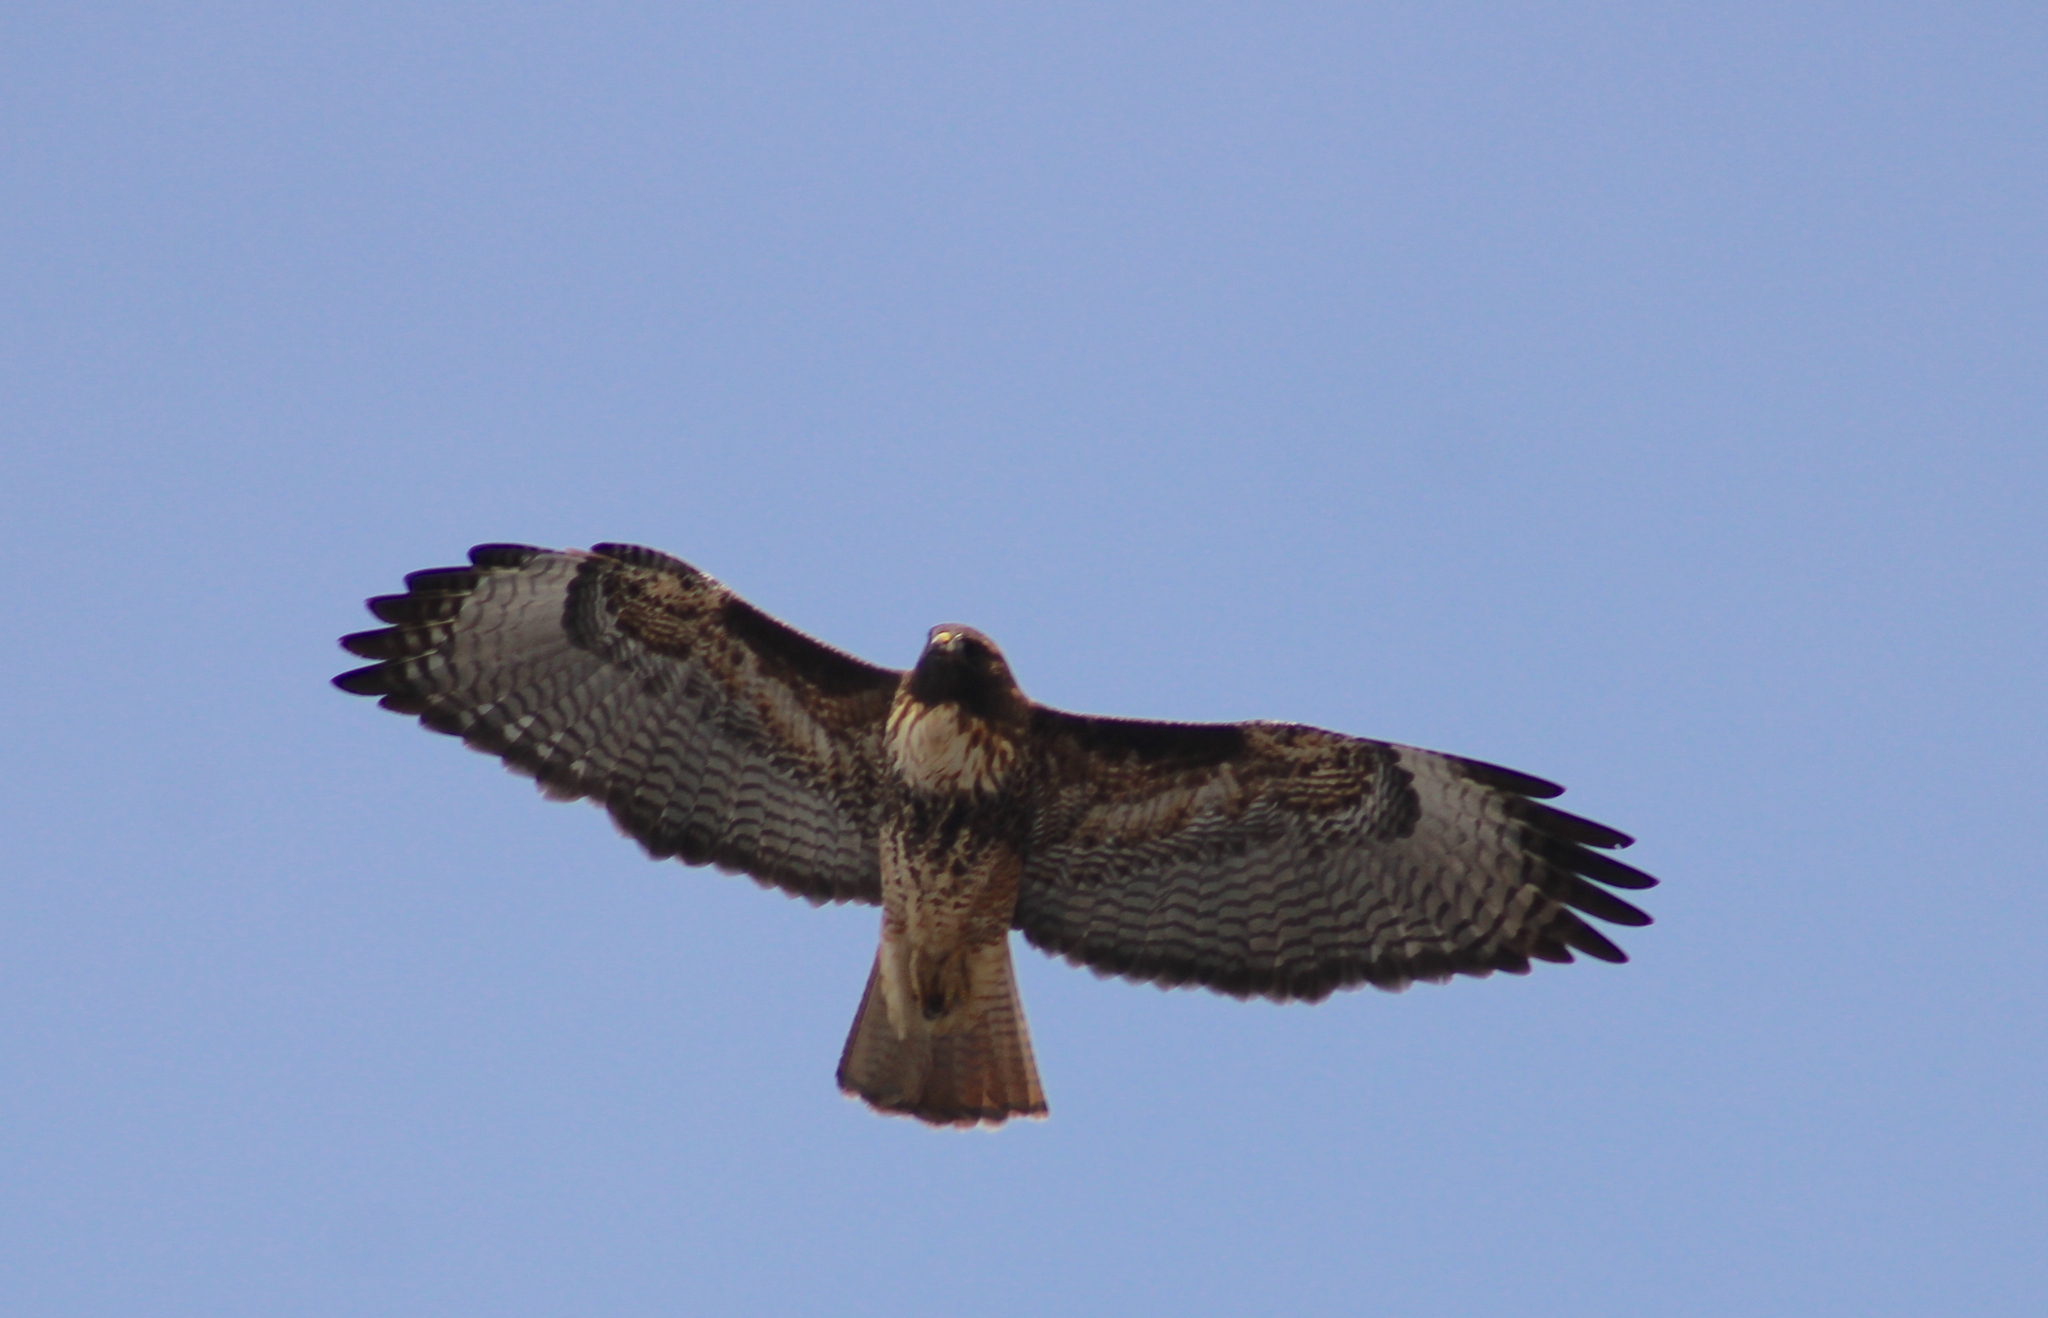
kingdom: Animalia
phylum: Chordata
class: Aves
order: Accipitriformes
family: Accipitridae
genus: Buteo
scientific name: Buteo jamaicensis
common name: Red-tailed hawk
